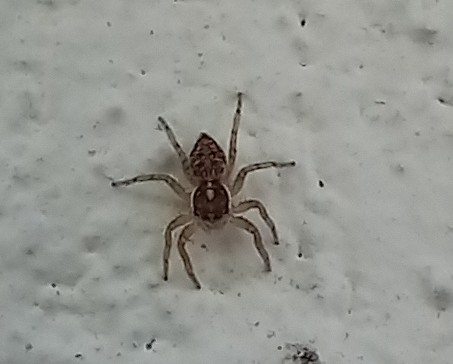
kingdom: Animalia
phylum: Arthropoda
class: Arachnida
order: Araneae
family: Salticidae
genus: Menemerus
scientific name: Menemerus semilimbatus
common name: Jumping spider
